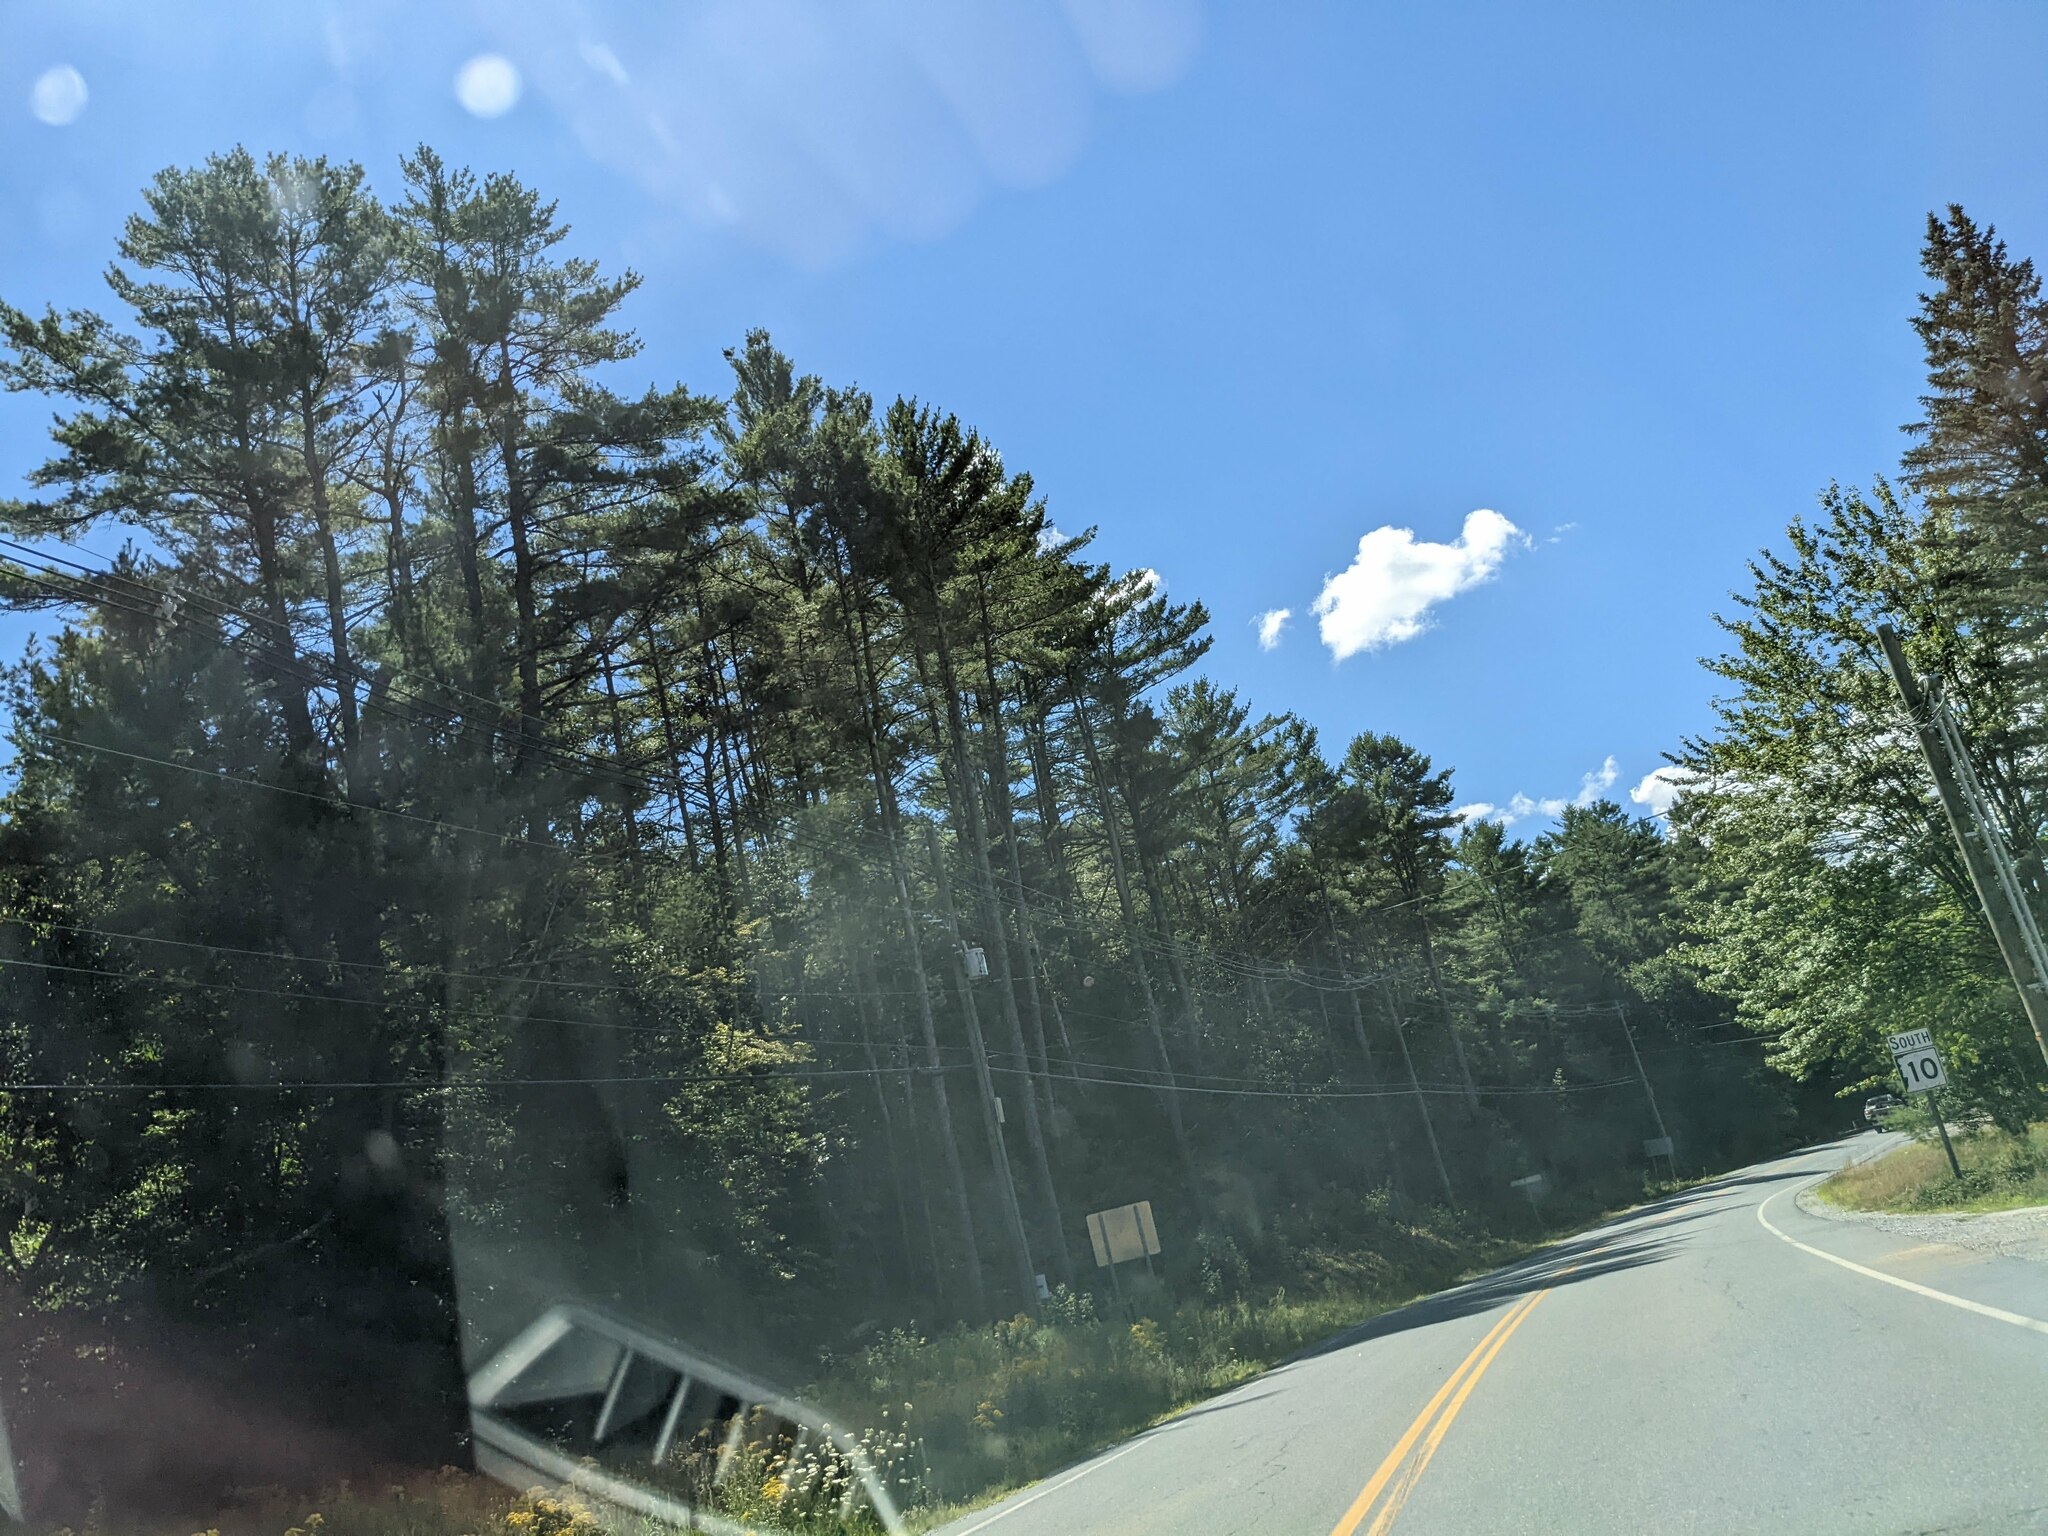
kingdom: Plantae
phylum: Tracheophyta
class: Pinopsida
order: Pinales
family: Pinaceae
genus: Pinus
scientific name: Pinus strobus
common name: Weymouth pine
